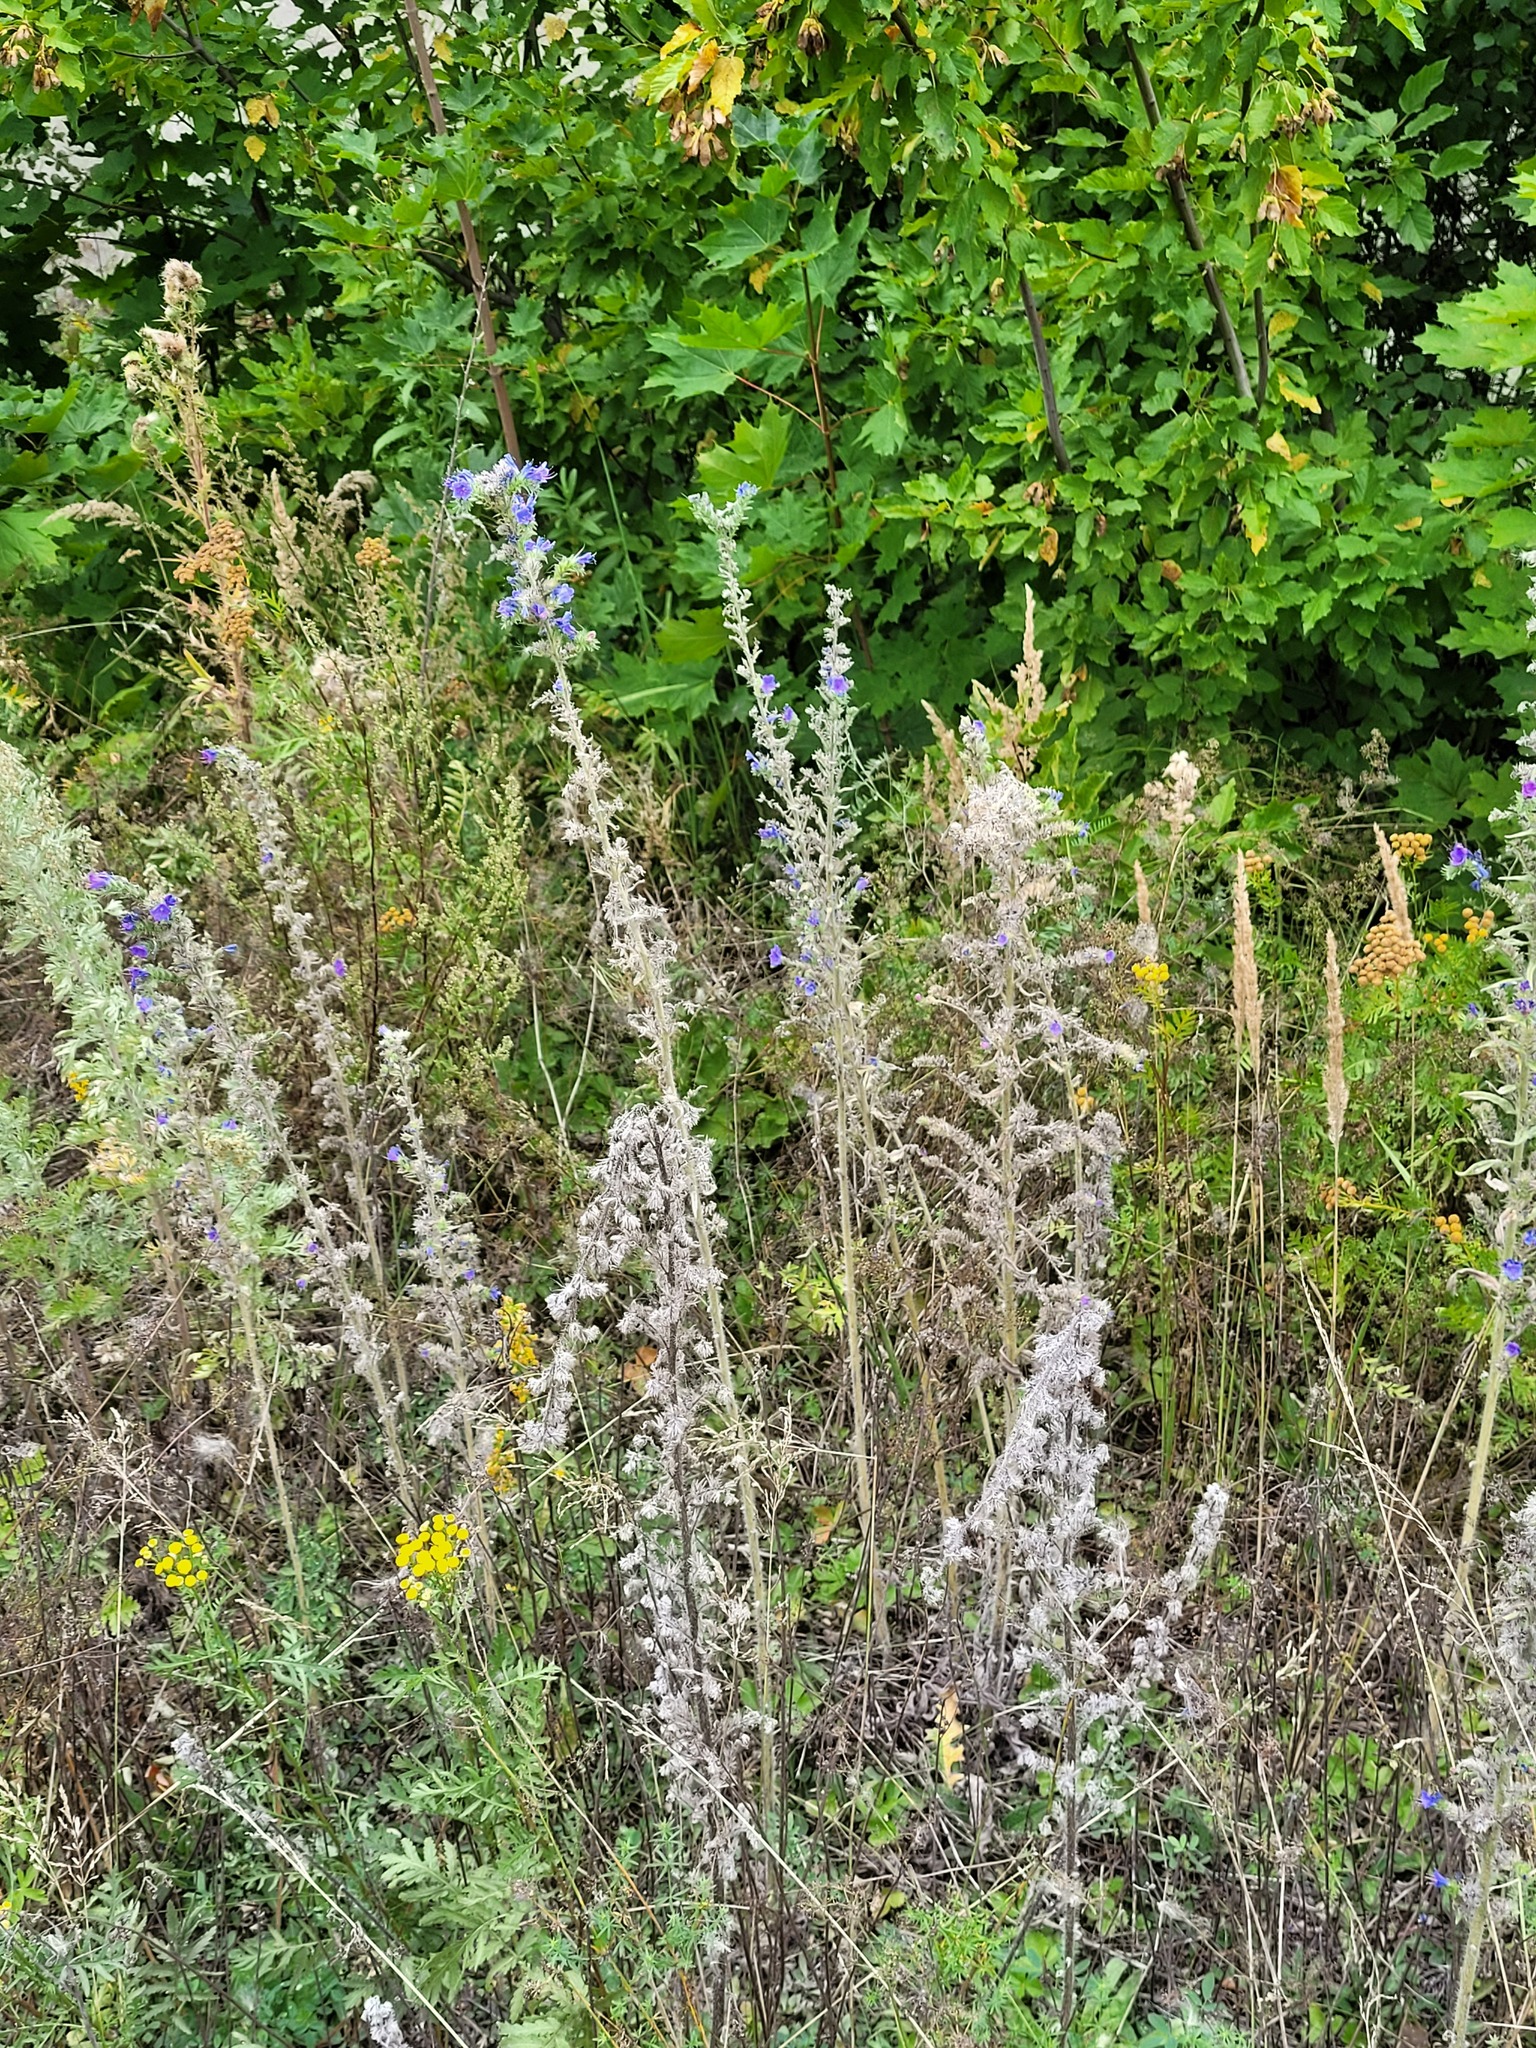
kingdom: Plantae
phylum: Tracheophyta
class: Magnoliopsida
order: Boraginales
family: Boraginaceae
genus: Echium
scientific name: Echium vulgare
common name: Common viper's bugloss
